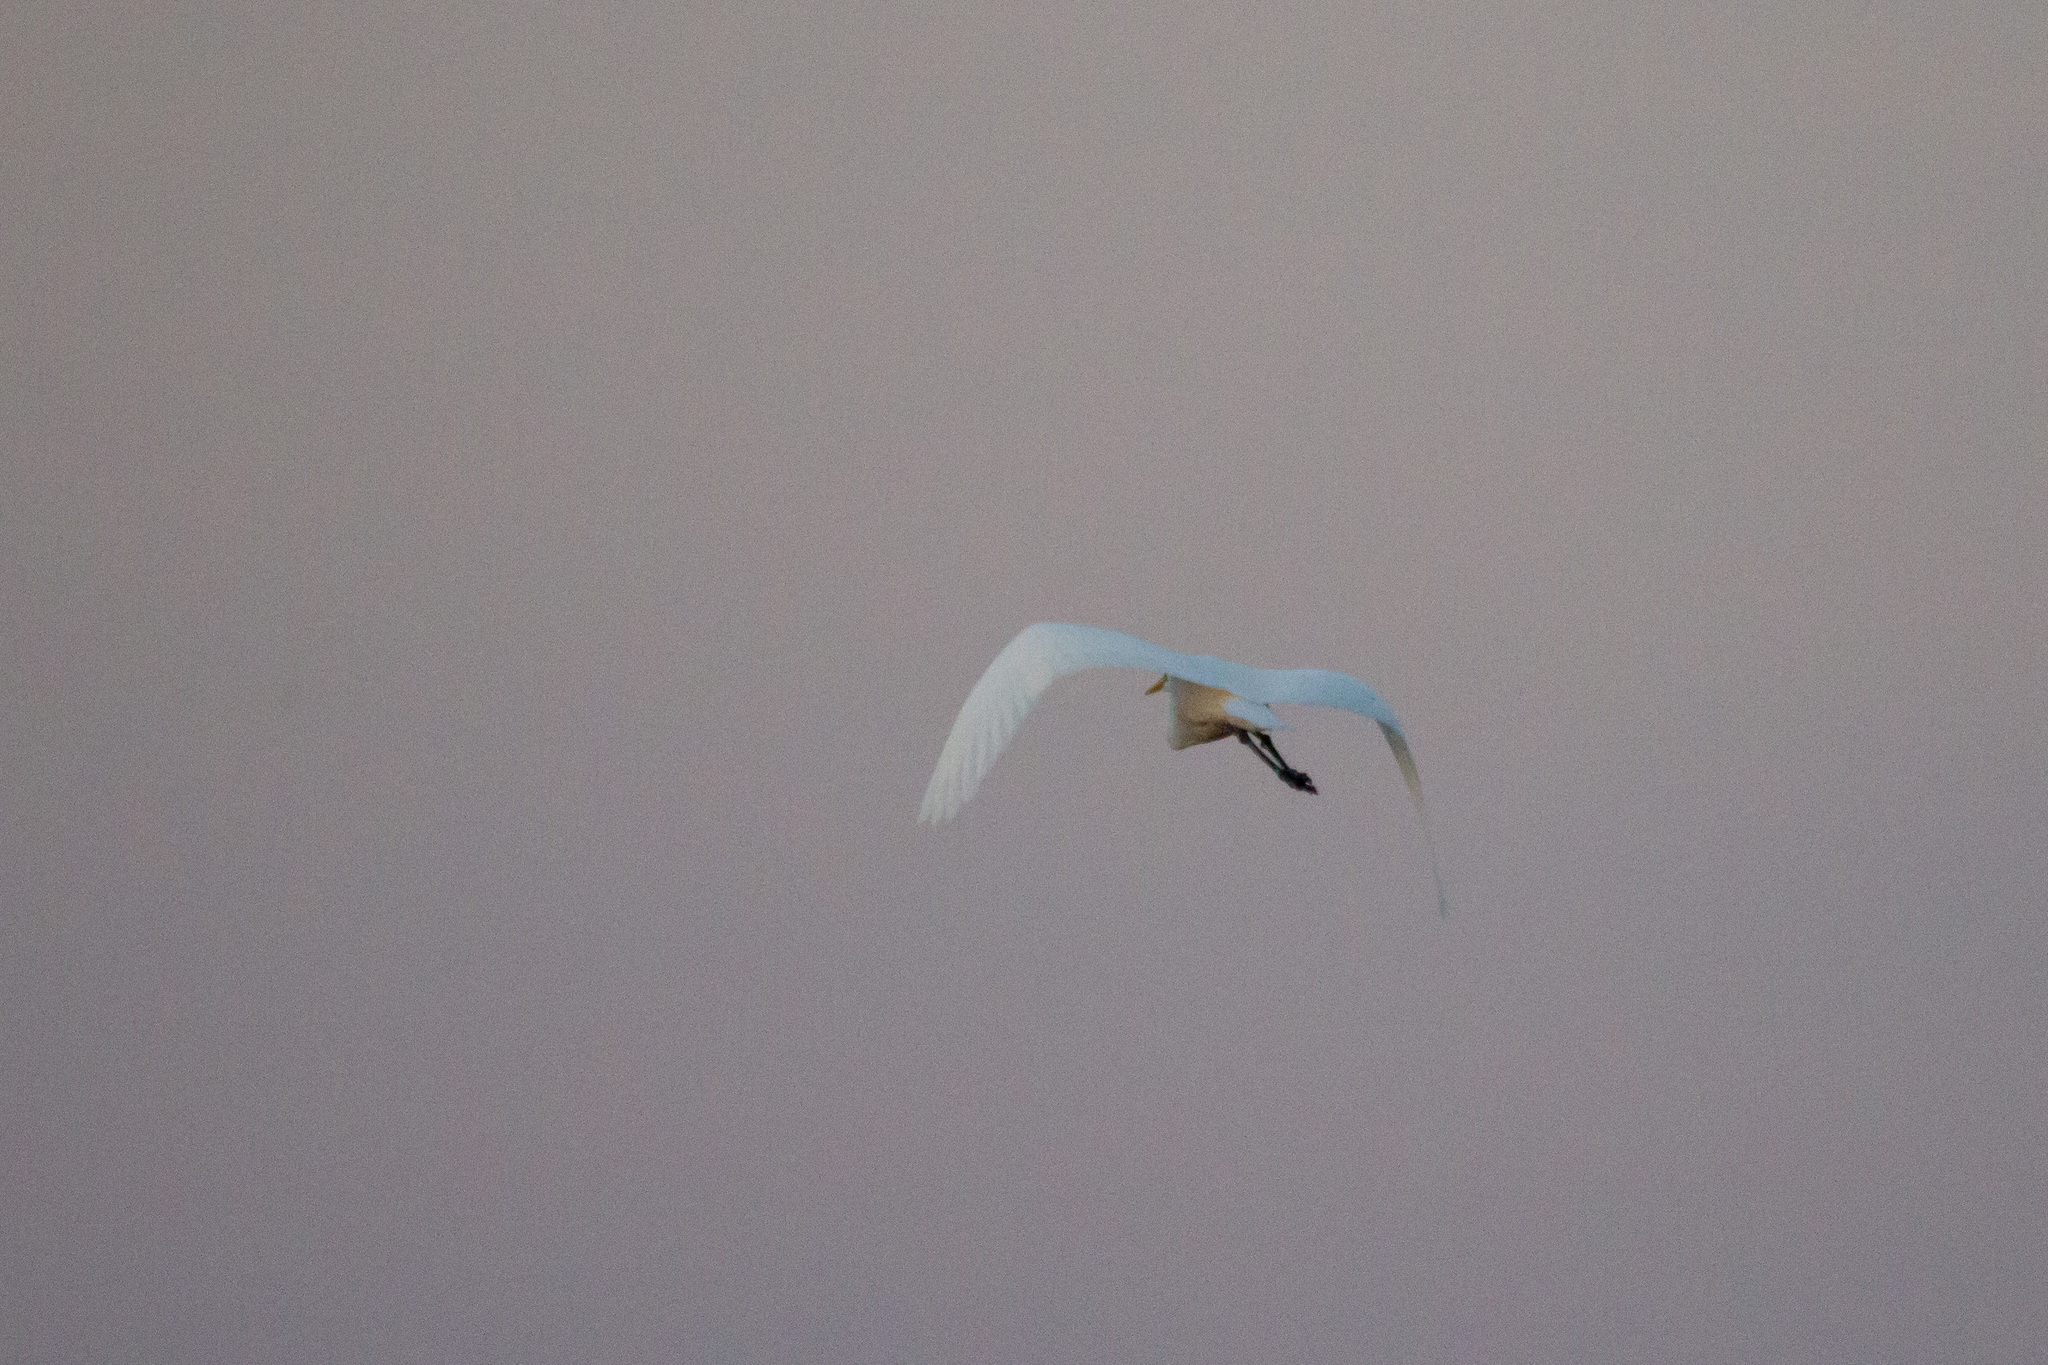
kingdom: Animalia
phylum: Chordata
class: Aves
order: Pelecaniformes
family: Ardeidae
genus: Ardea
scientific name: Ardea alba
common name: Great egret
